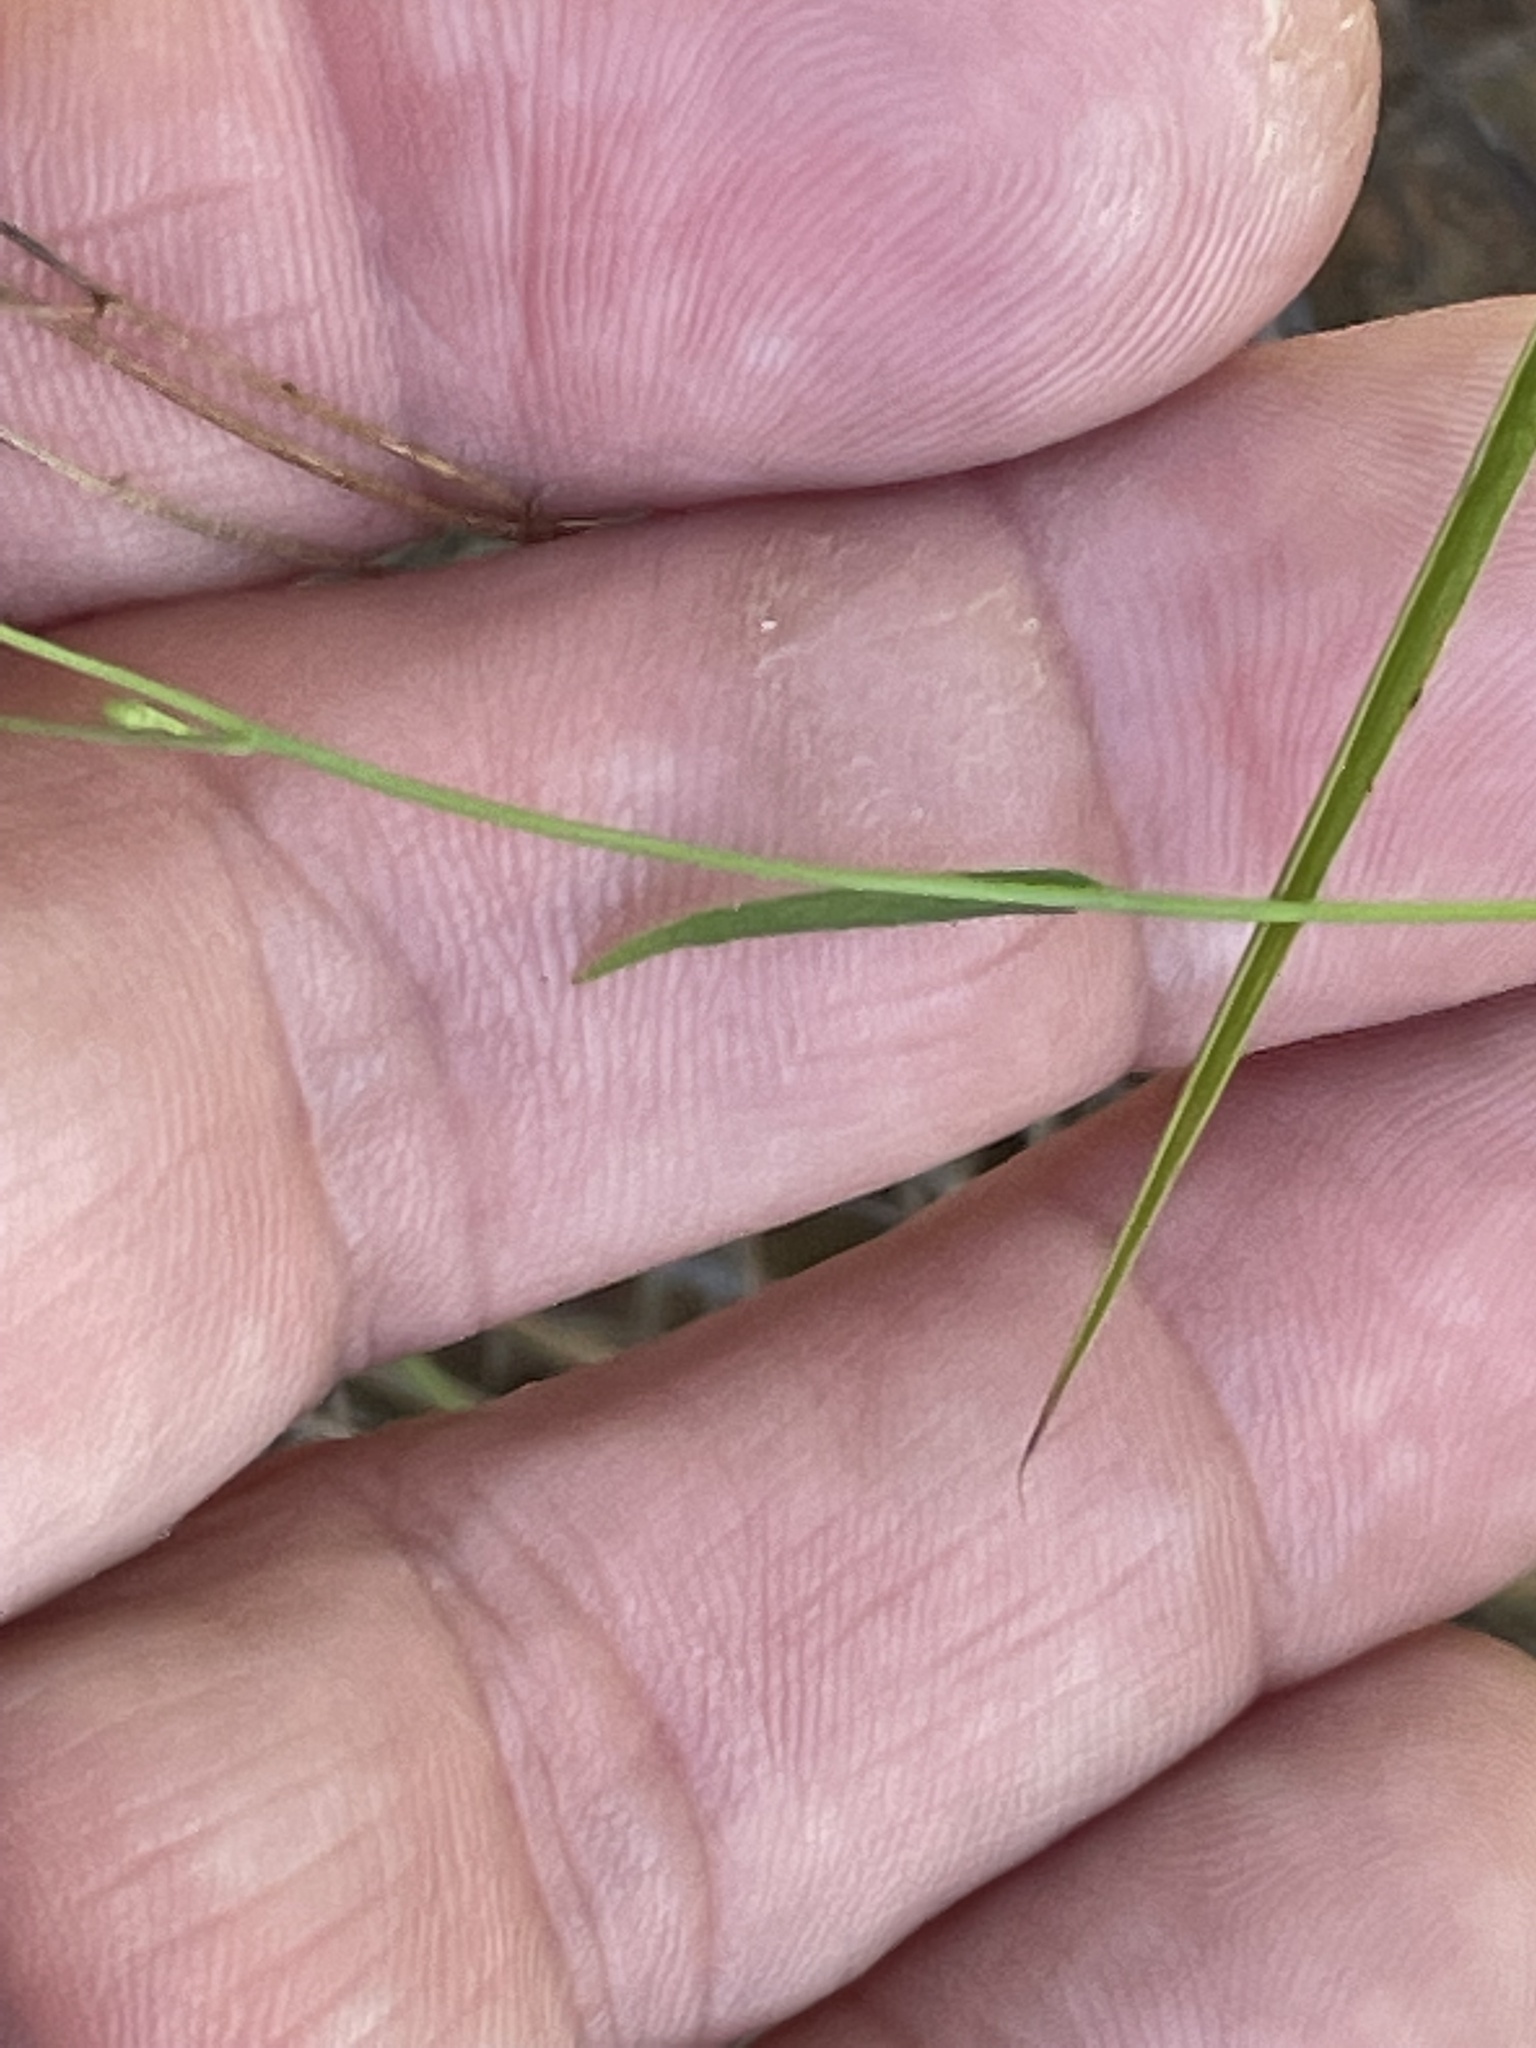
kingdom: Plantae
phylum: Tracheophyta
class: Magnoliopsida
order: Asterales
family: Campanulaceae
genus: Wahlenbergia
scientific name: Wahlenbergia marginata
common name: Southern rockbell
